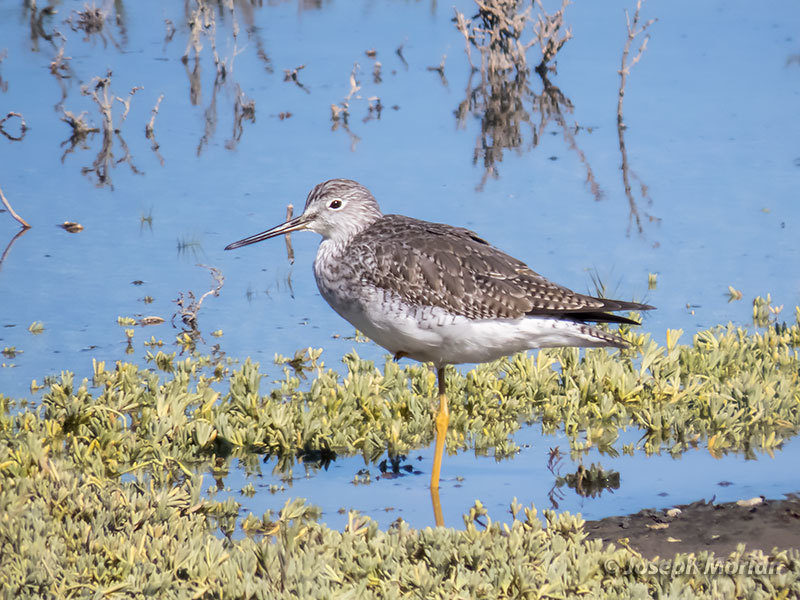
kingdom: Animalia
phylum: Chordata
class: Aves
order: Charadriiformes
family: Scolopacidae
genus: Tringa
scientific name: Tringa melanoleuca
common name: Greater yellowlegs
